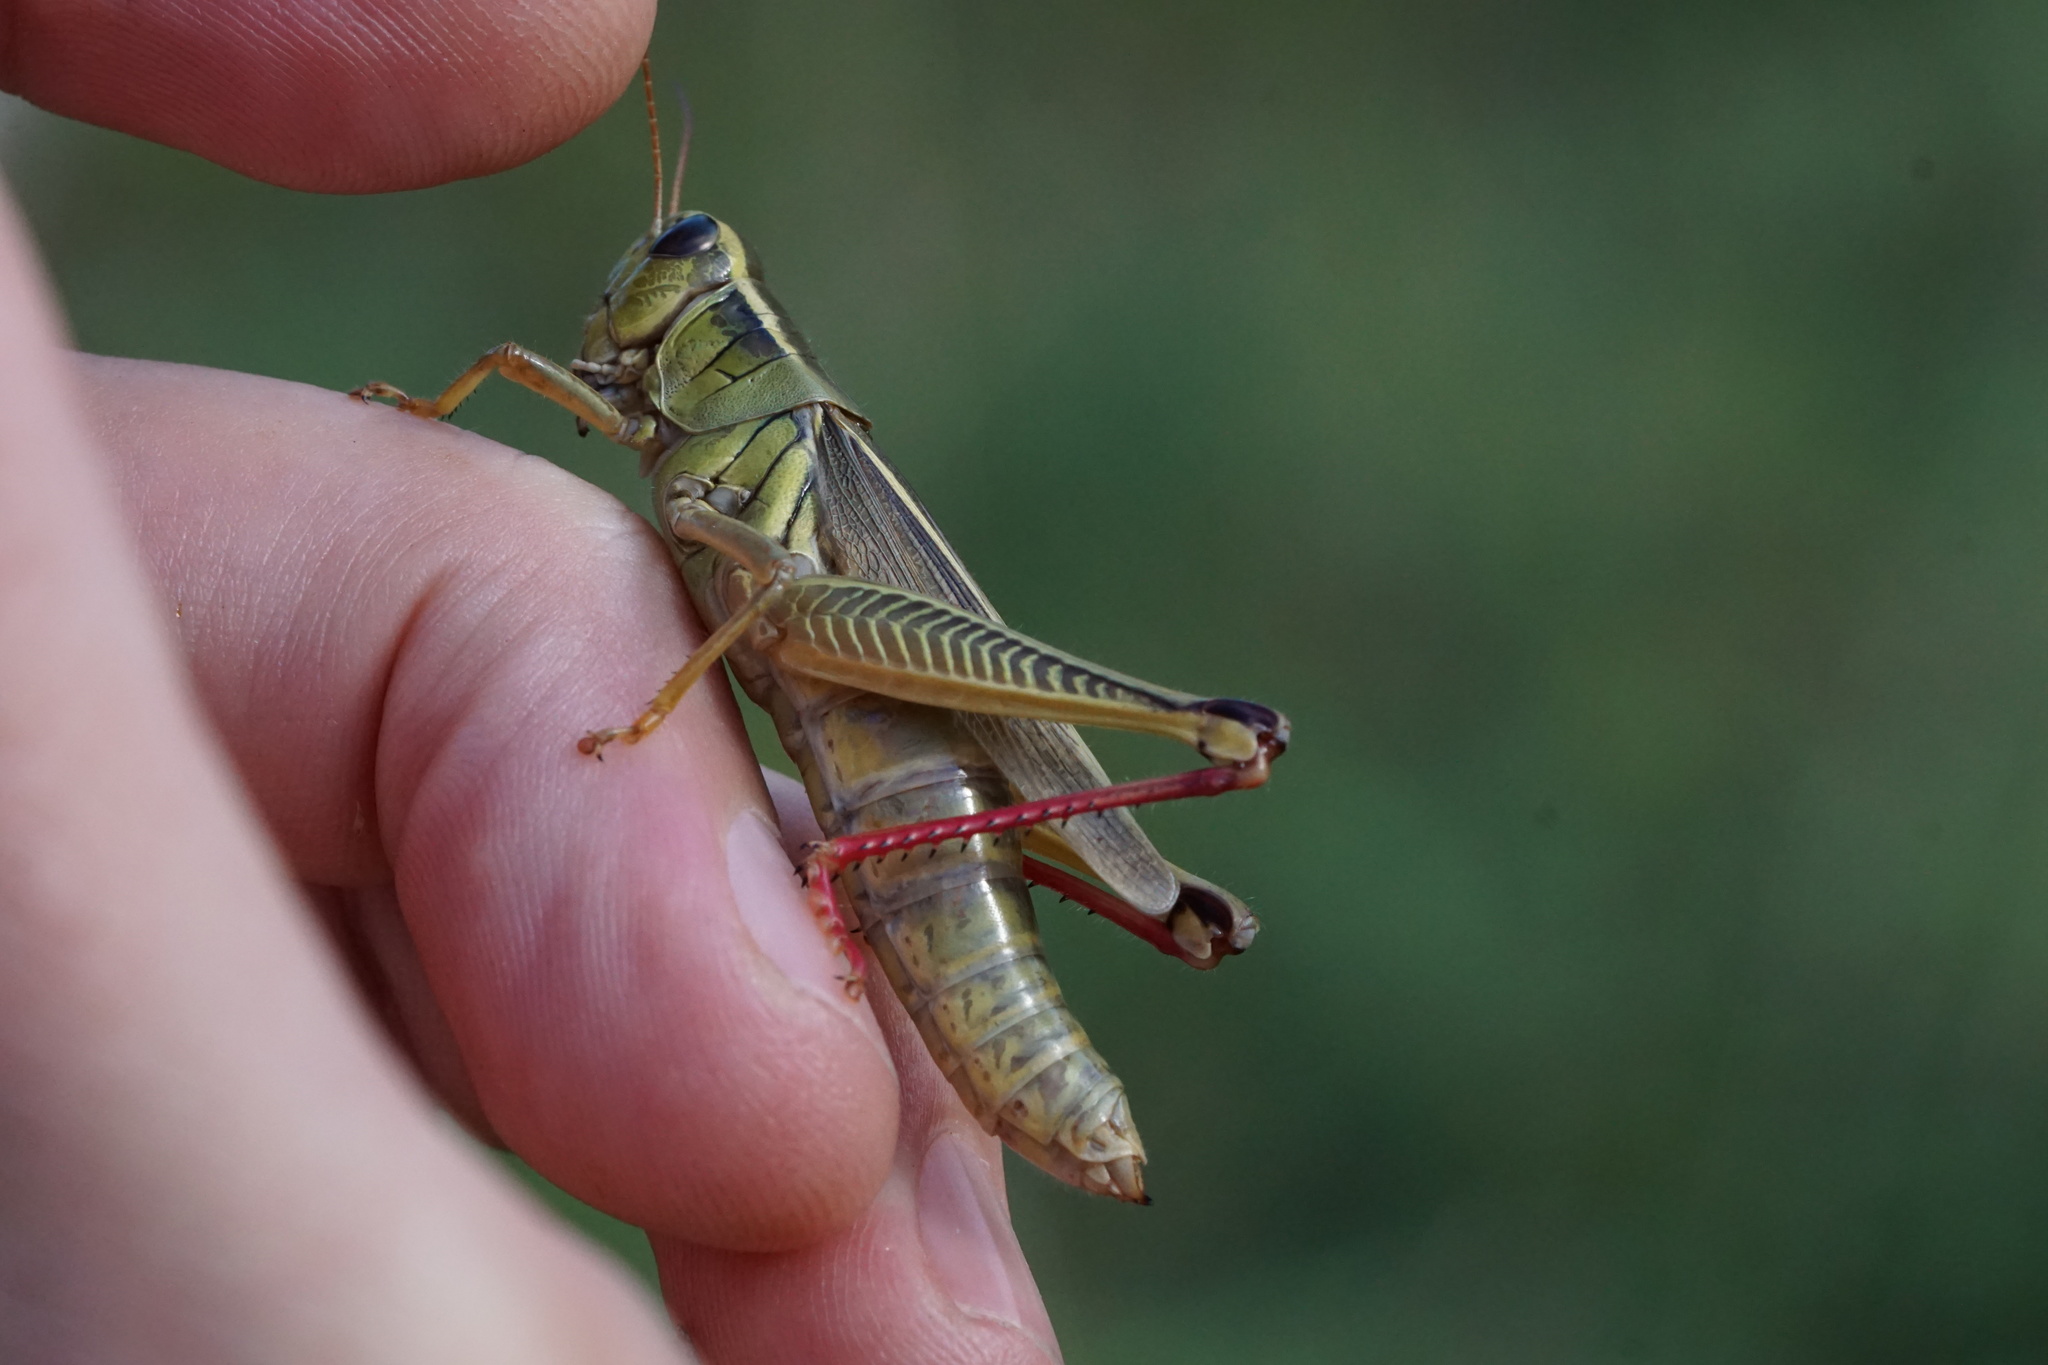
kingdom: Animalia
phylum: Arthropoda
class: Insecta
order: Orthoptera
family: Acrididae
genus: Melanoplus
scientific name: Melanoplus bivittatus
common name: Two-striped grasshopper
